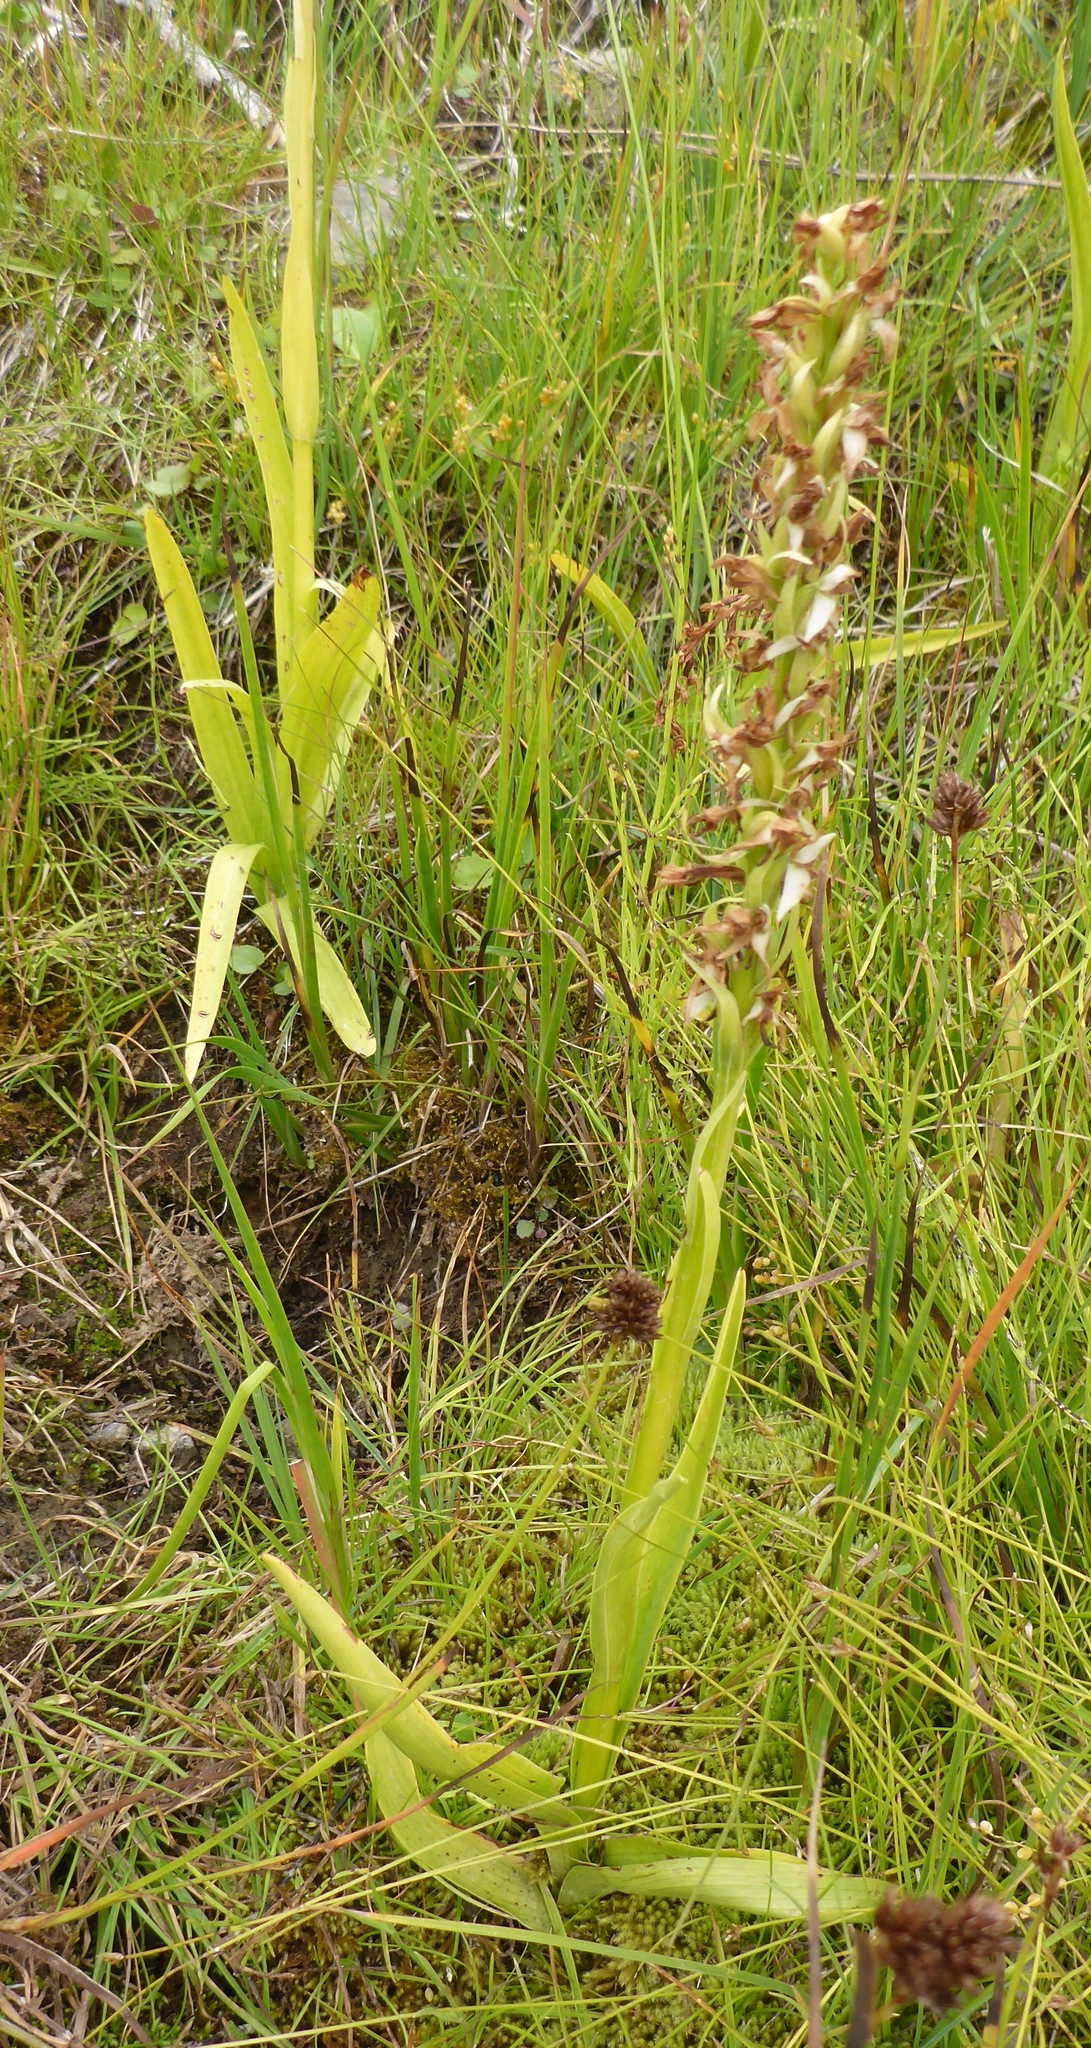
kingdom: Plantae
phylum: Tracheophyta
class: Liliopsida
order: Asparagales
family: Orchidaceae
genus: Platanthera
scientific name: Platanthera dilatata
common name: Bog candles
